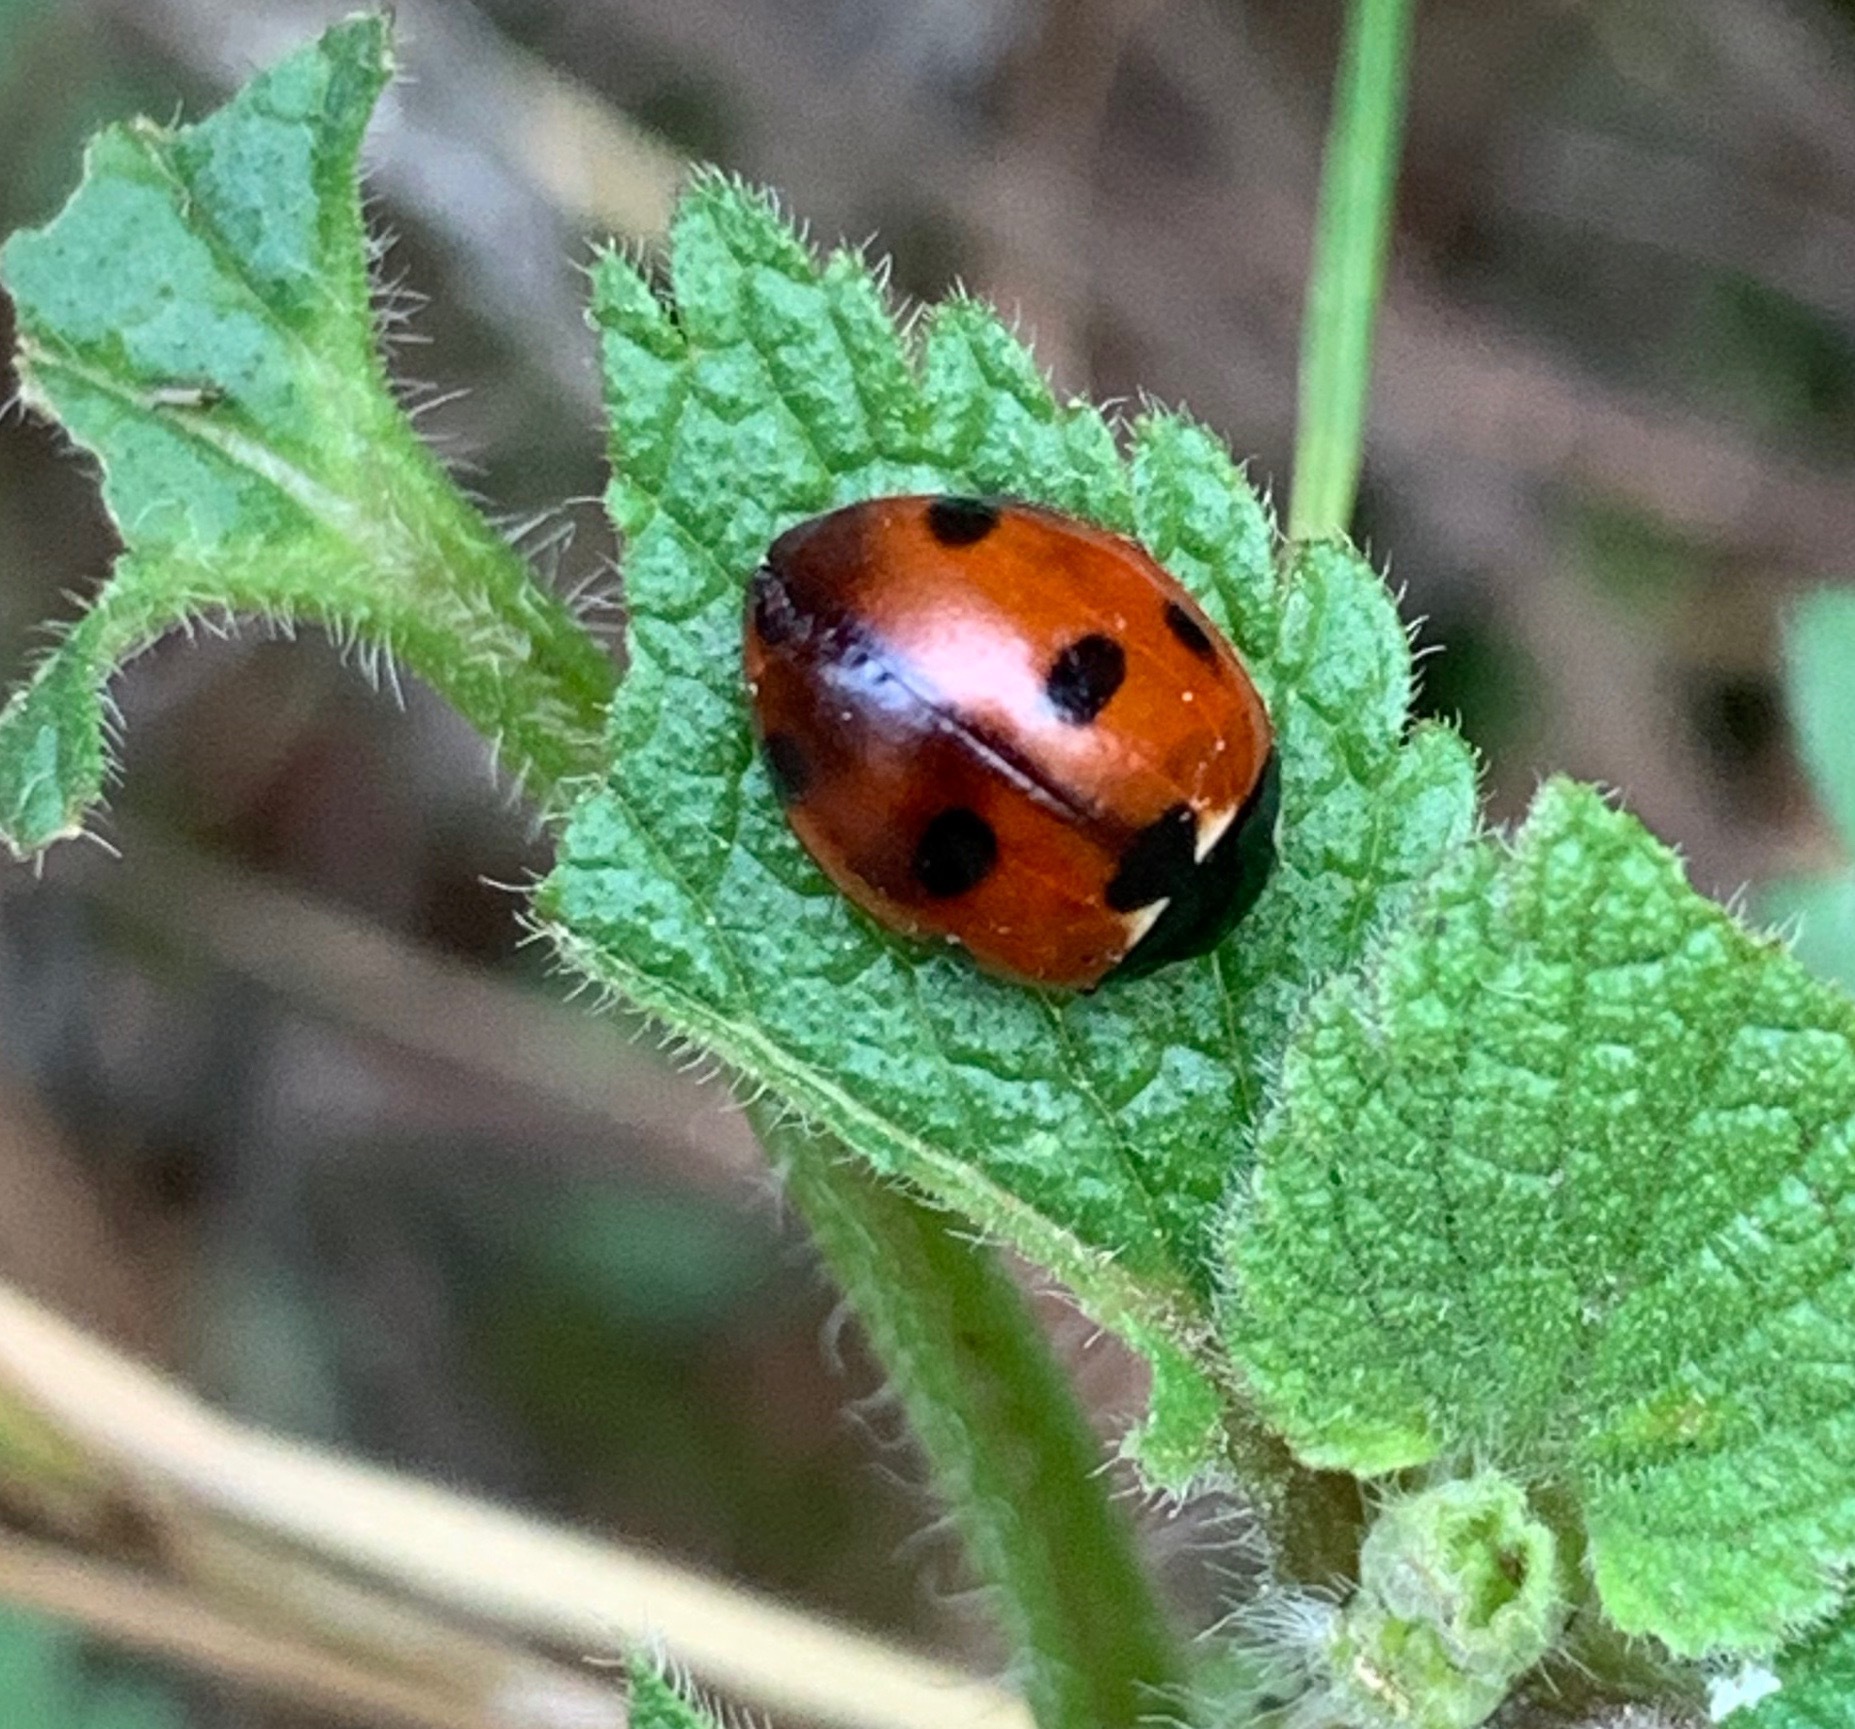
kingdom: Animalia
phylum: Arthropoda
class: Insecta
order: Coleoptera
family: Coccinellidae
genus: Coccinella
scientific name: Coccinella septempunctata
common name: Sevenspotted lady beetle
